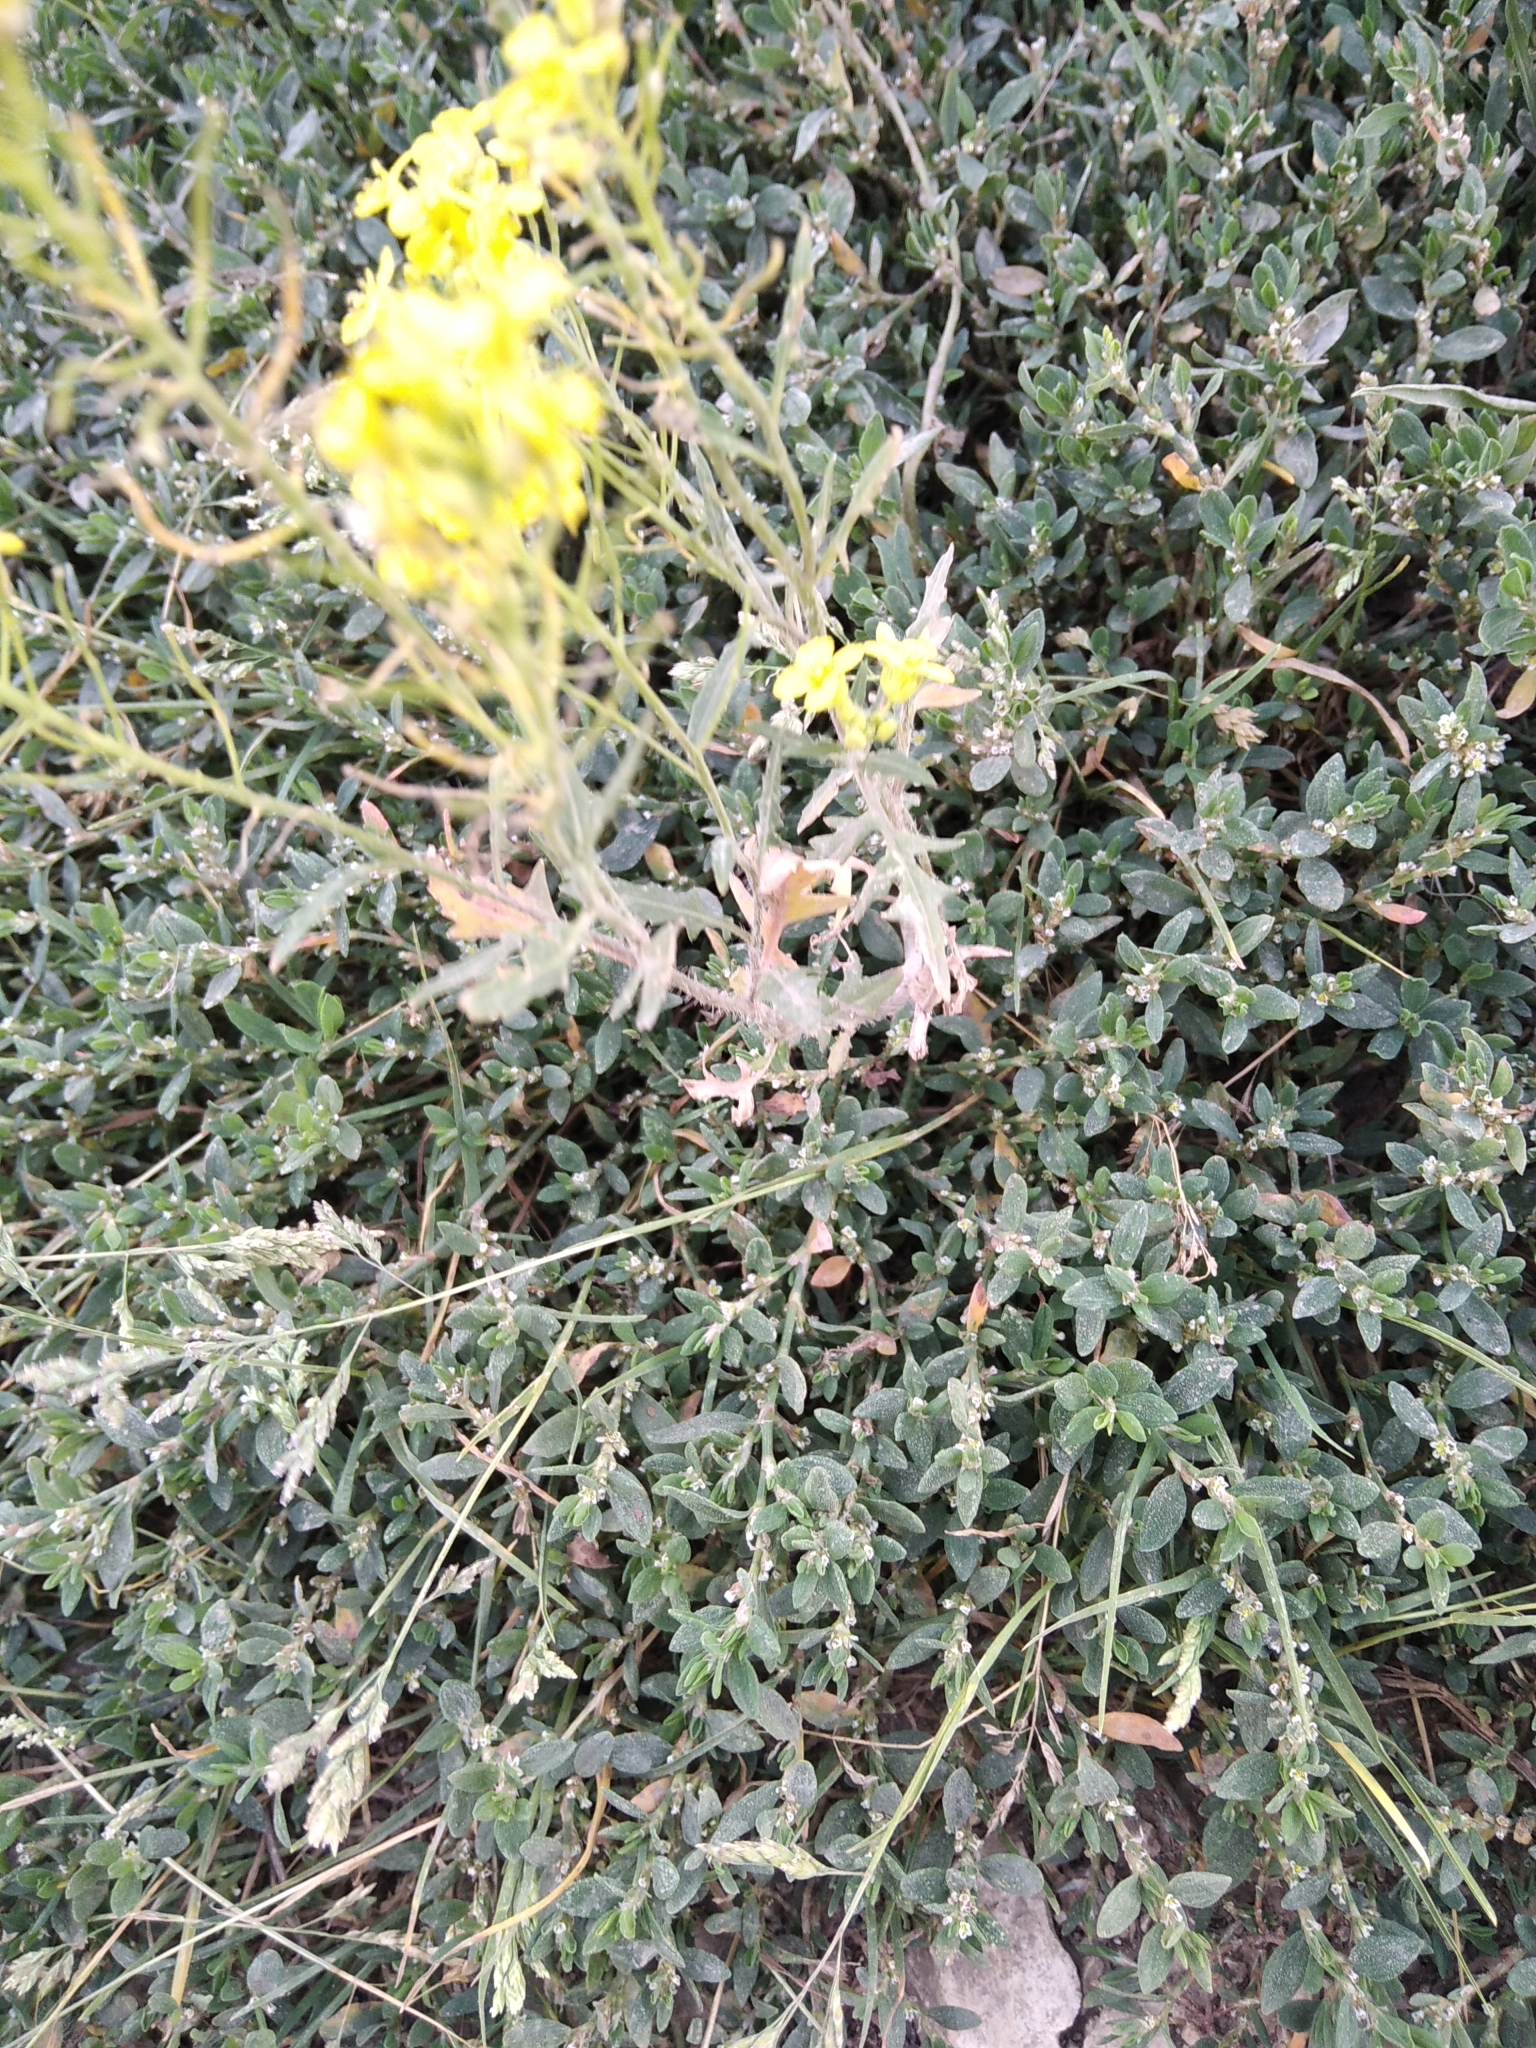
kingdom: Plantae
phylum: Tracheophyta
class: Magnoliopsida
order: Brassicales
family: Brassicaceae
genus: Sisymbrium
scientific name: Sisymbrium loeselii
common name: False london-rocket
